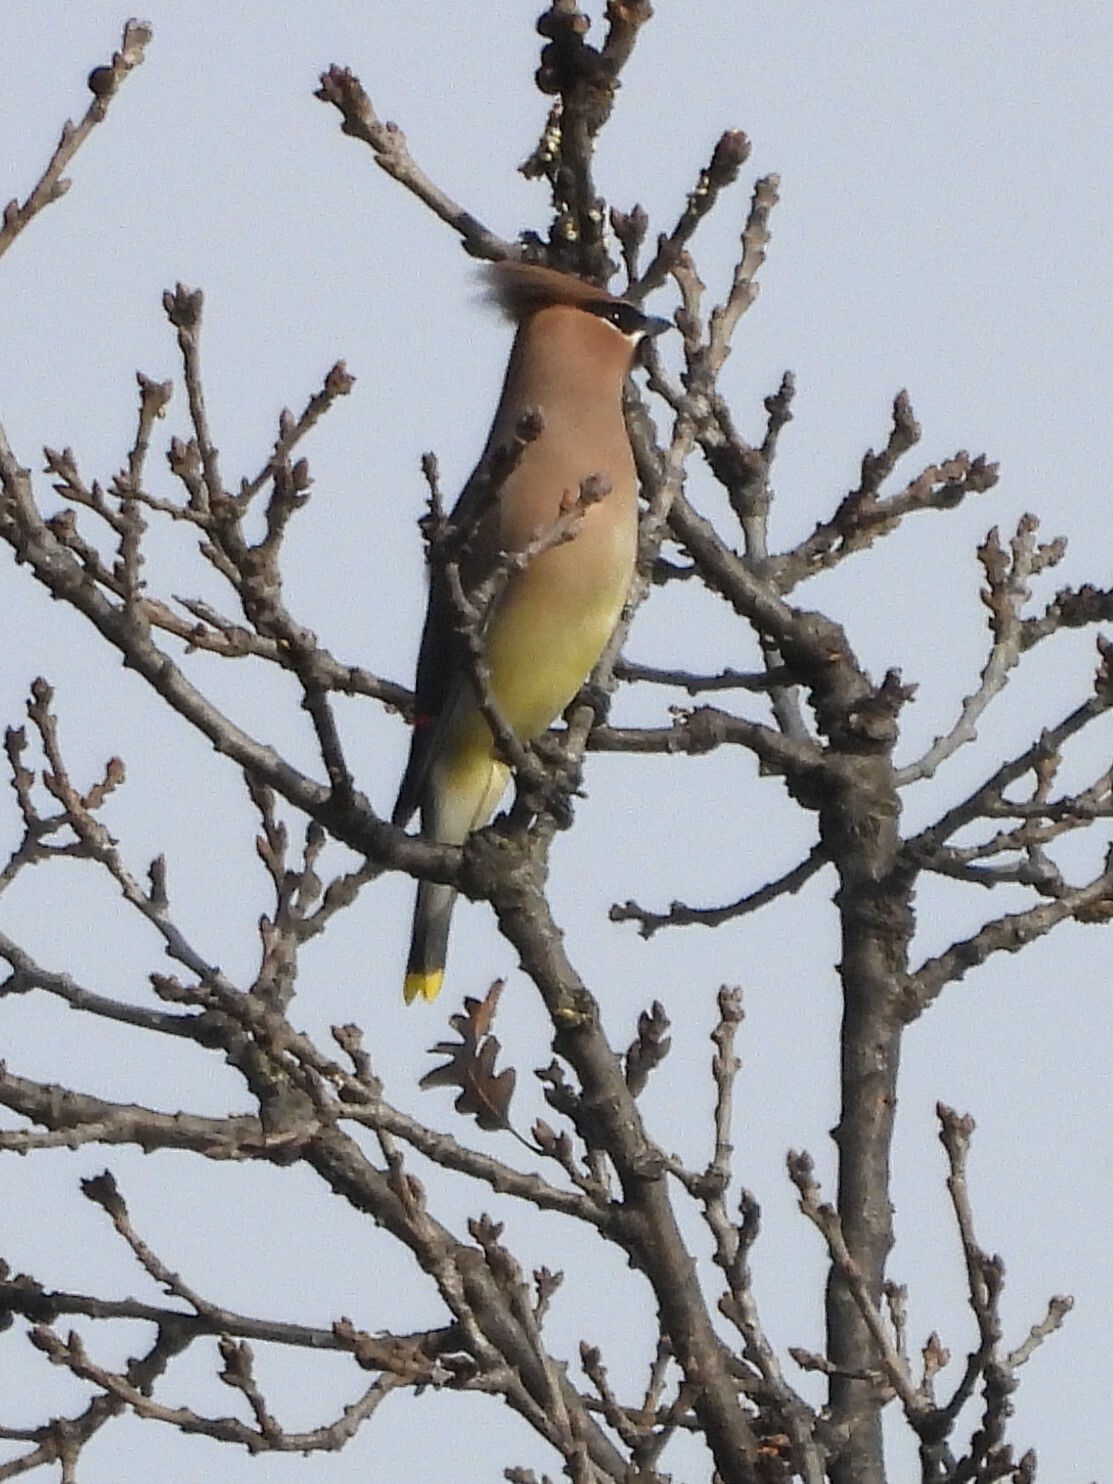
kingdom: Animalia
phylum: Chordata
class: Aves
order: Passeriformes
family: Bombycillidae
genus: Bombycilla
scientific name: Bombycilla cedrorum
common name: Cedar waxwing
